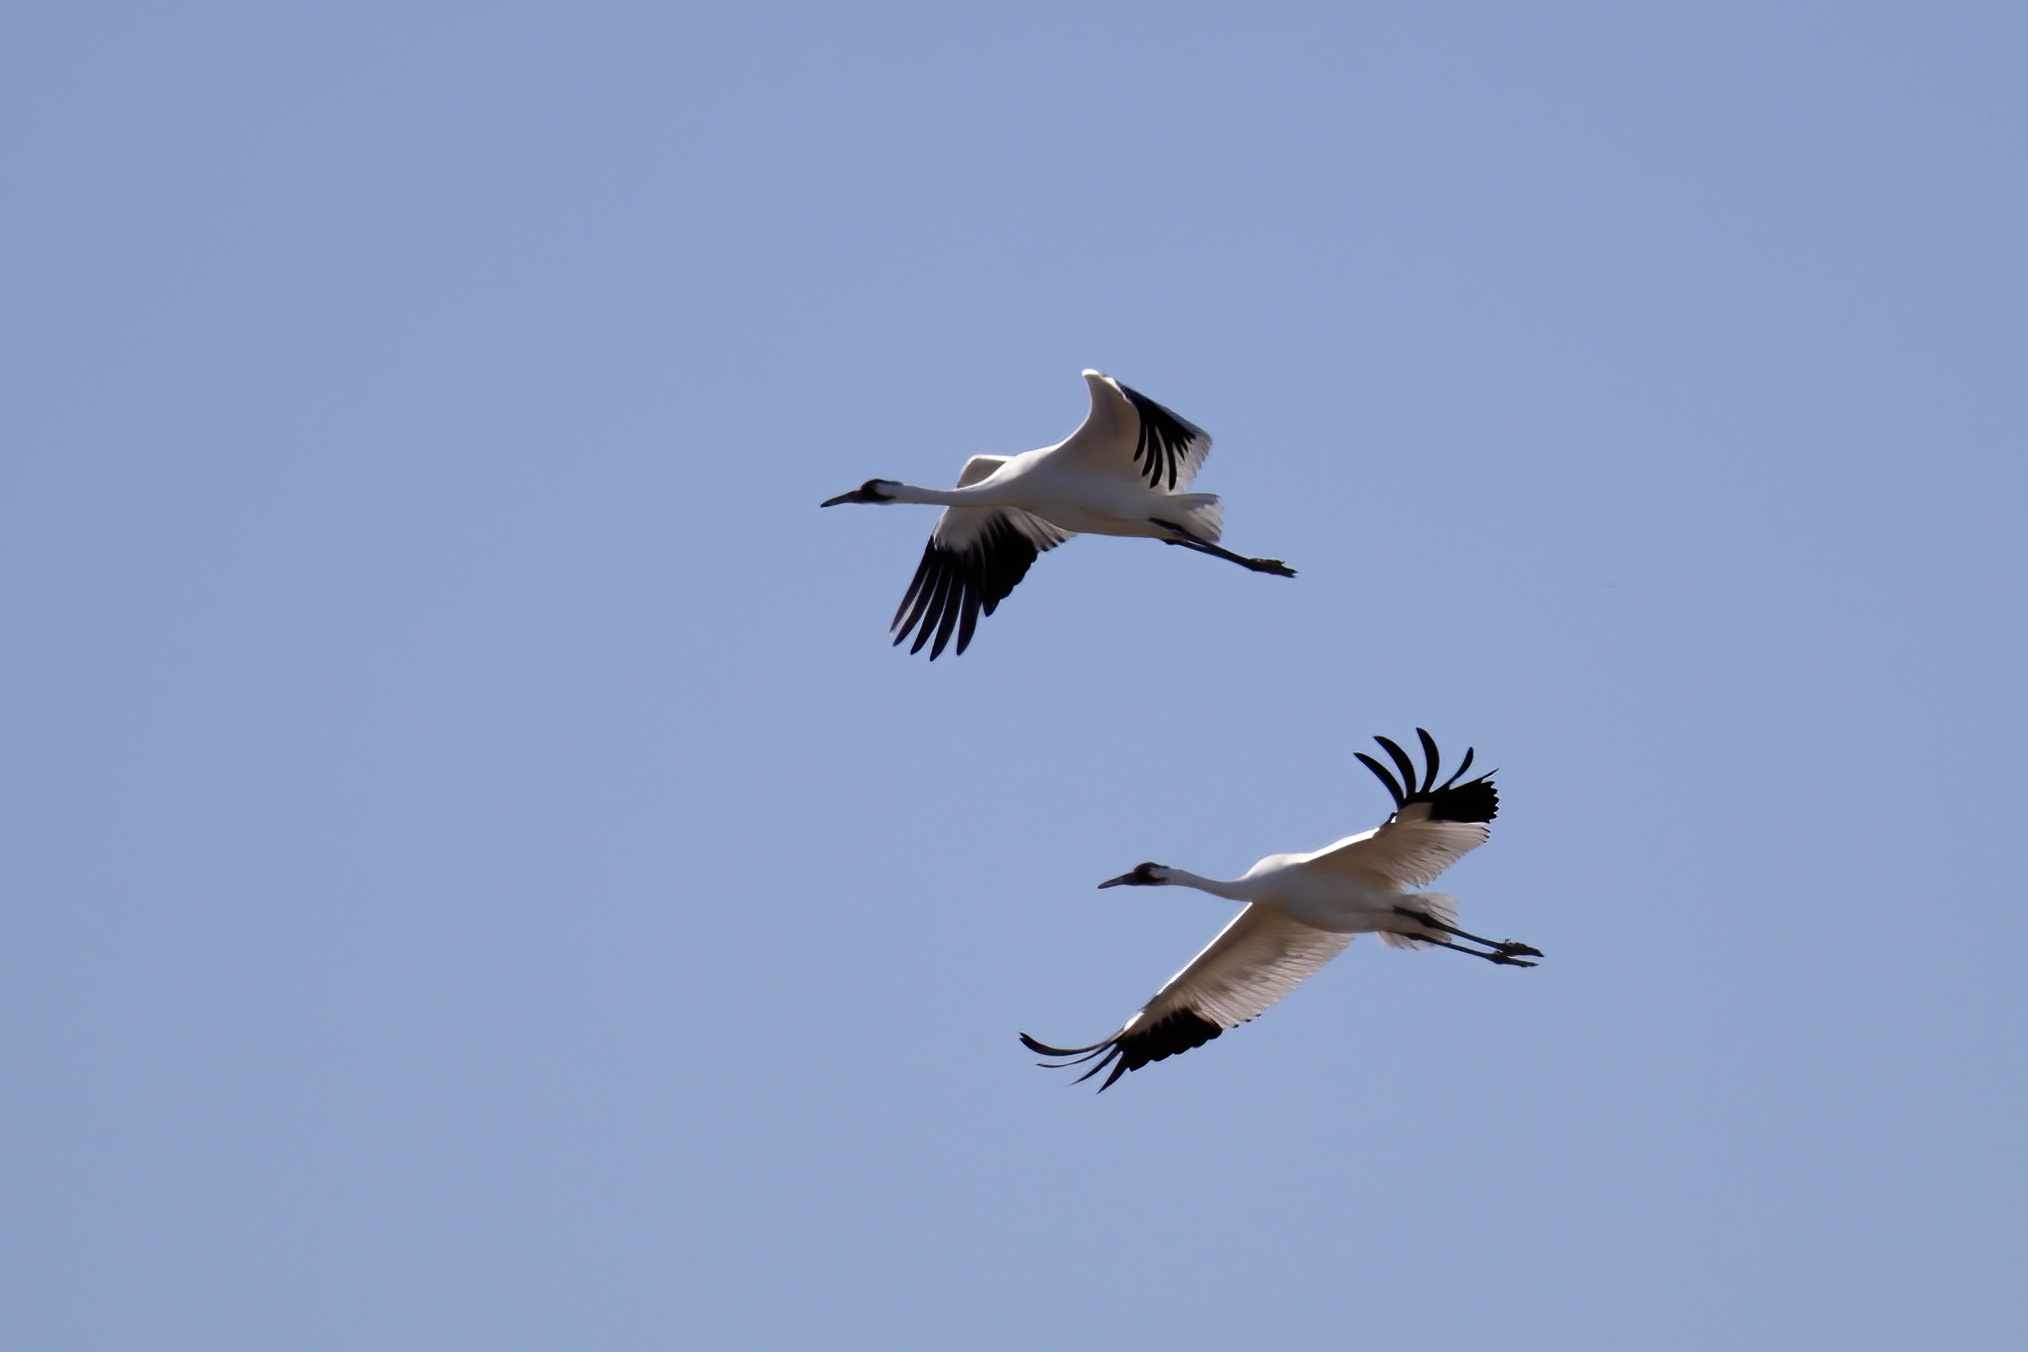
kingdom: Animalia
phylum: Chordata
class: Aves
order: Gruiformes
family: Gruidae
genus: Grus
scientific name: Grus americana
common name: Whooping crane
